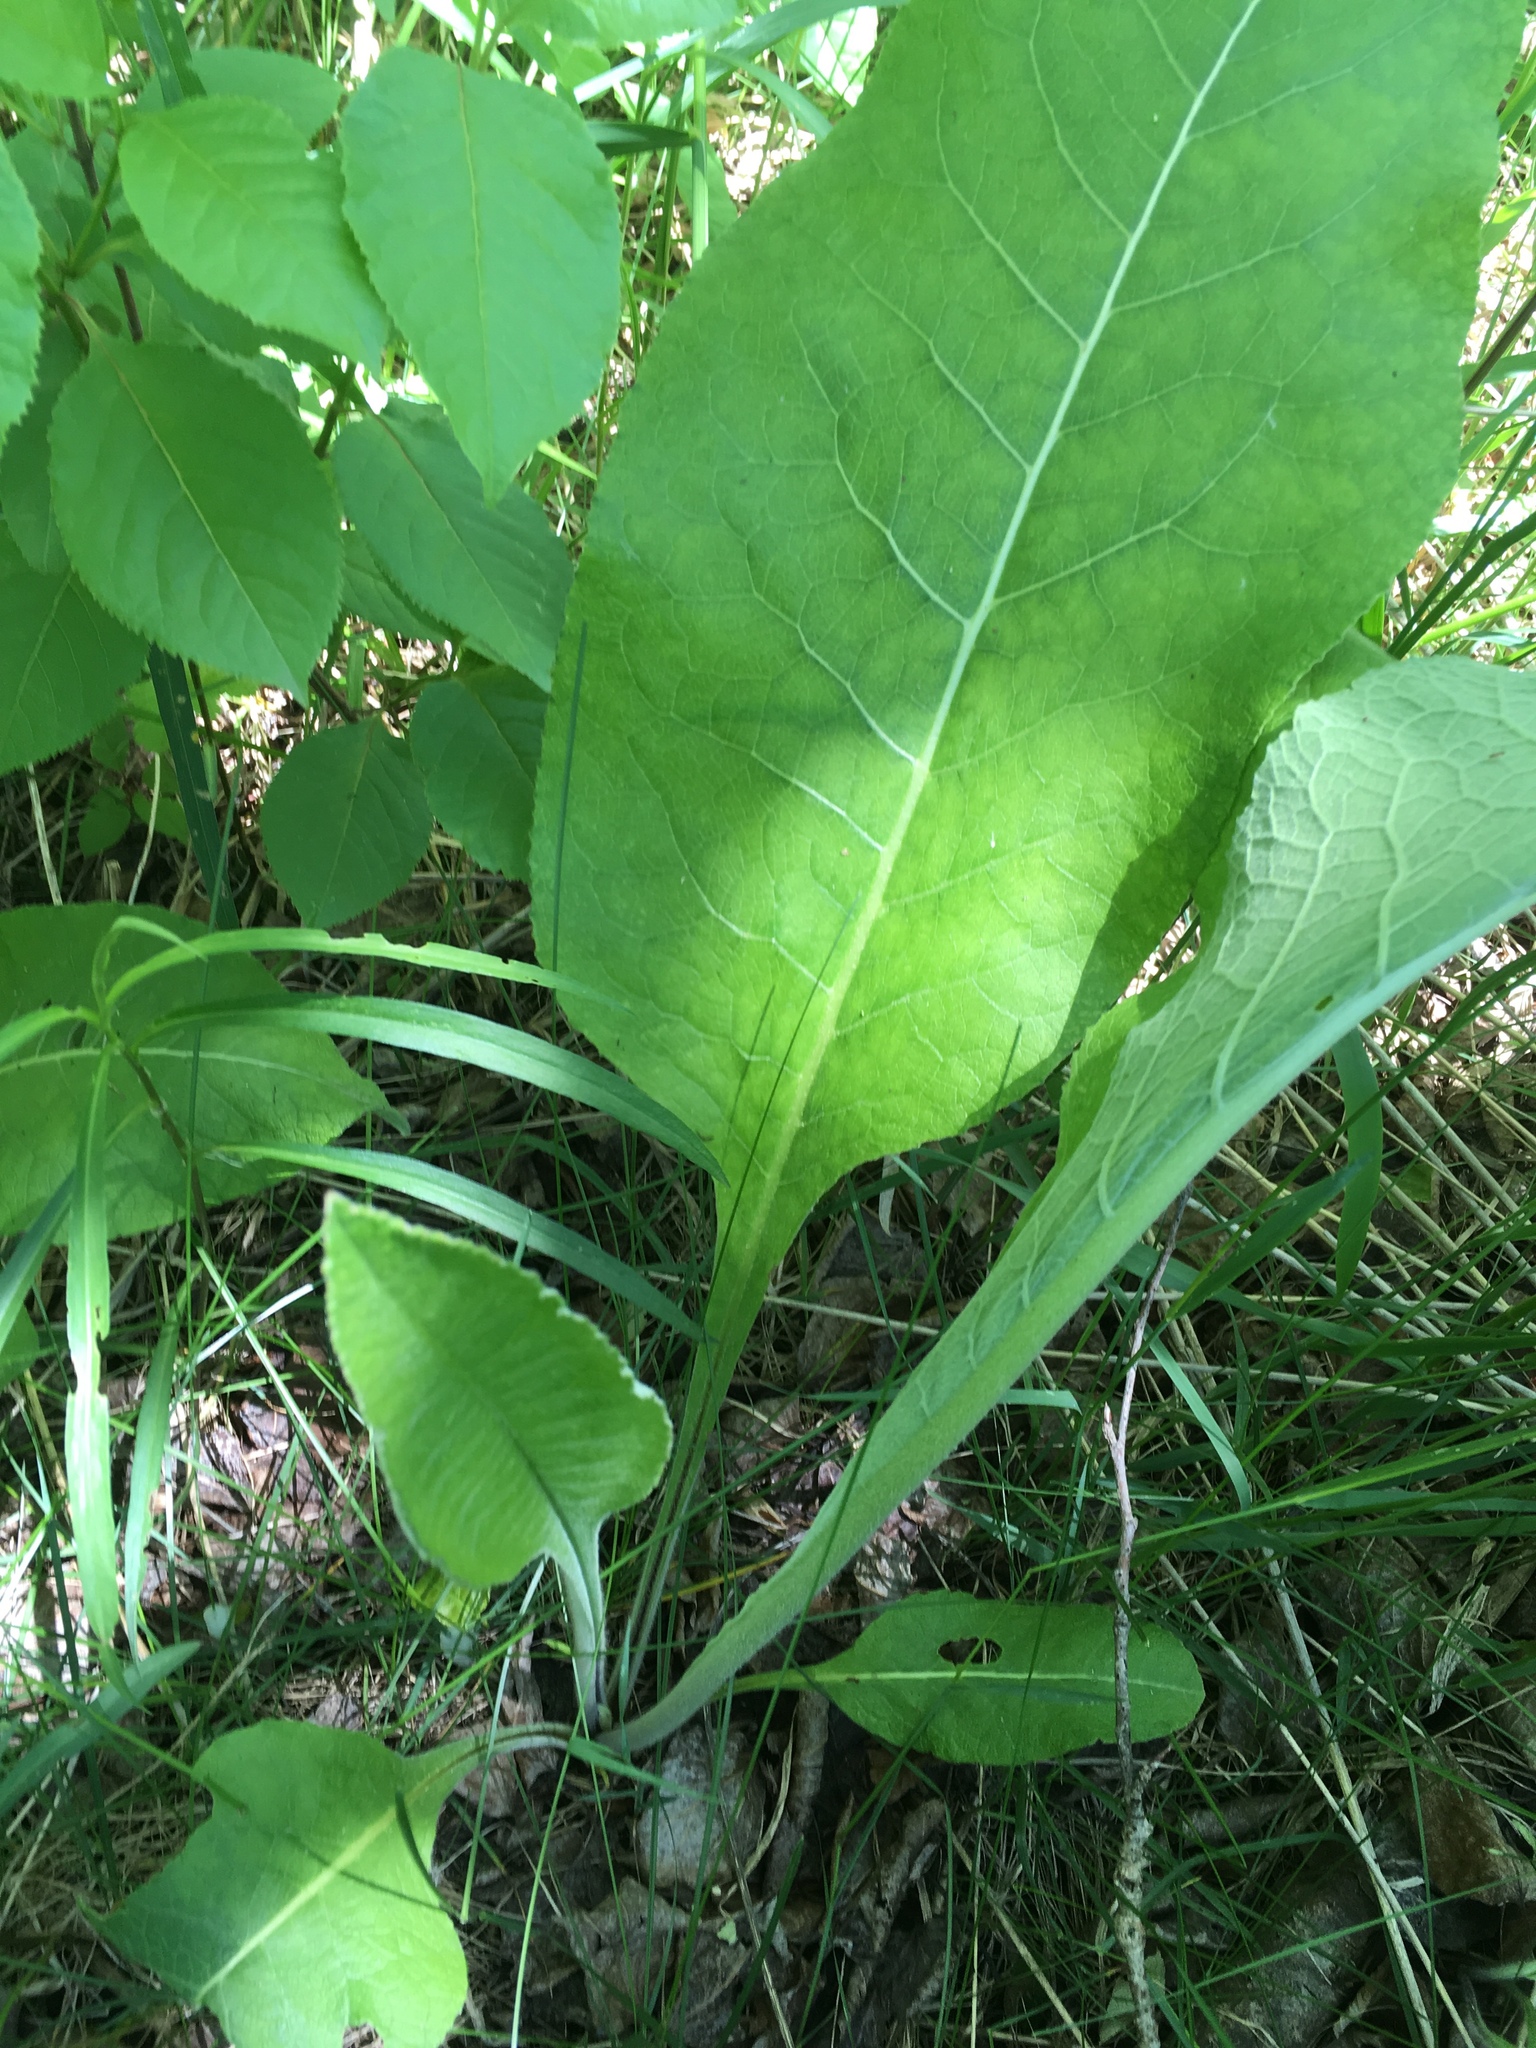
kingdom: Plantae
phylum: Tracheophyta
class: Magnoliopsida
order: Asterales
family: Asteraceae
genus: Inula
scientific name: Inula helenium
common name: Elecampane
